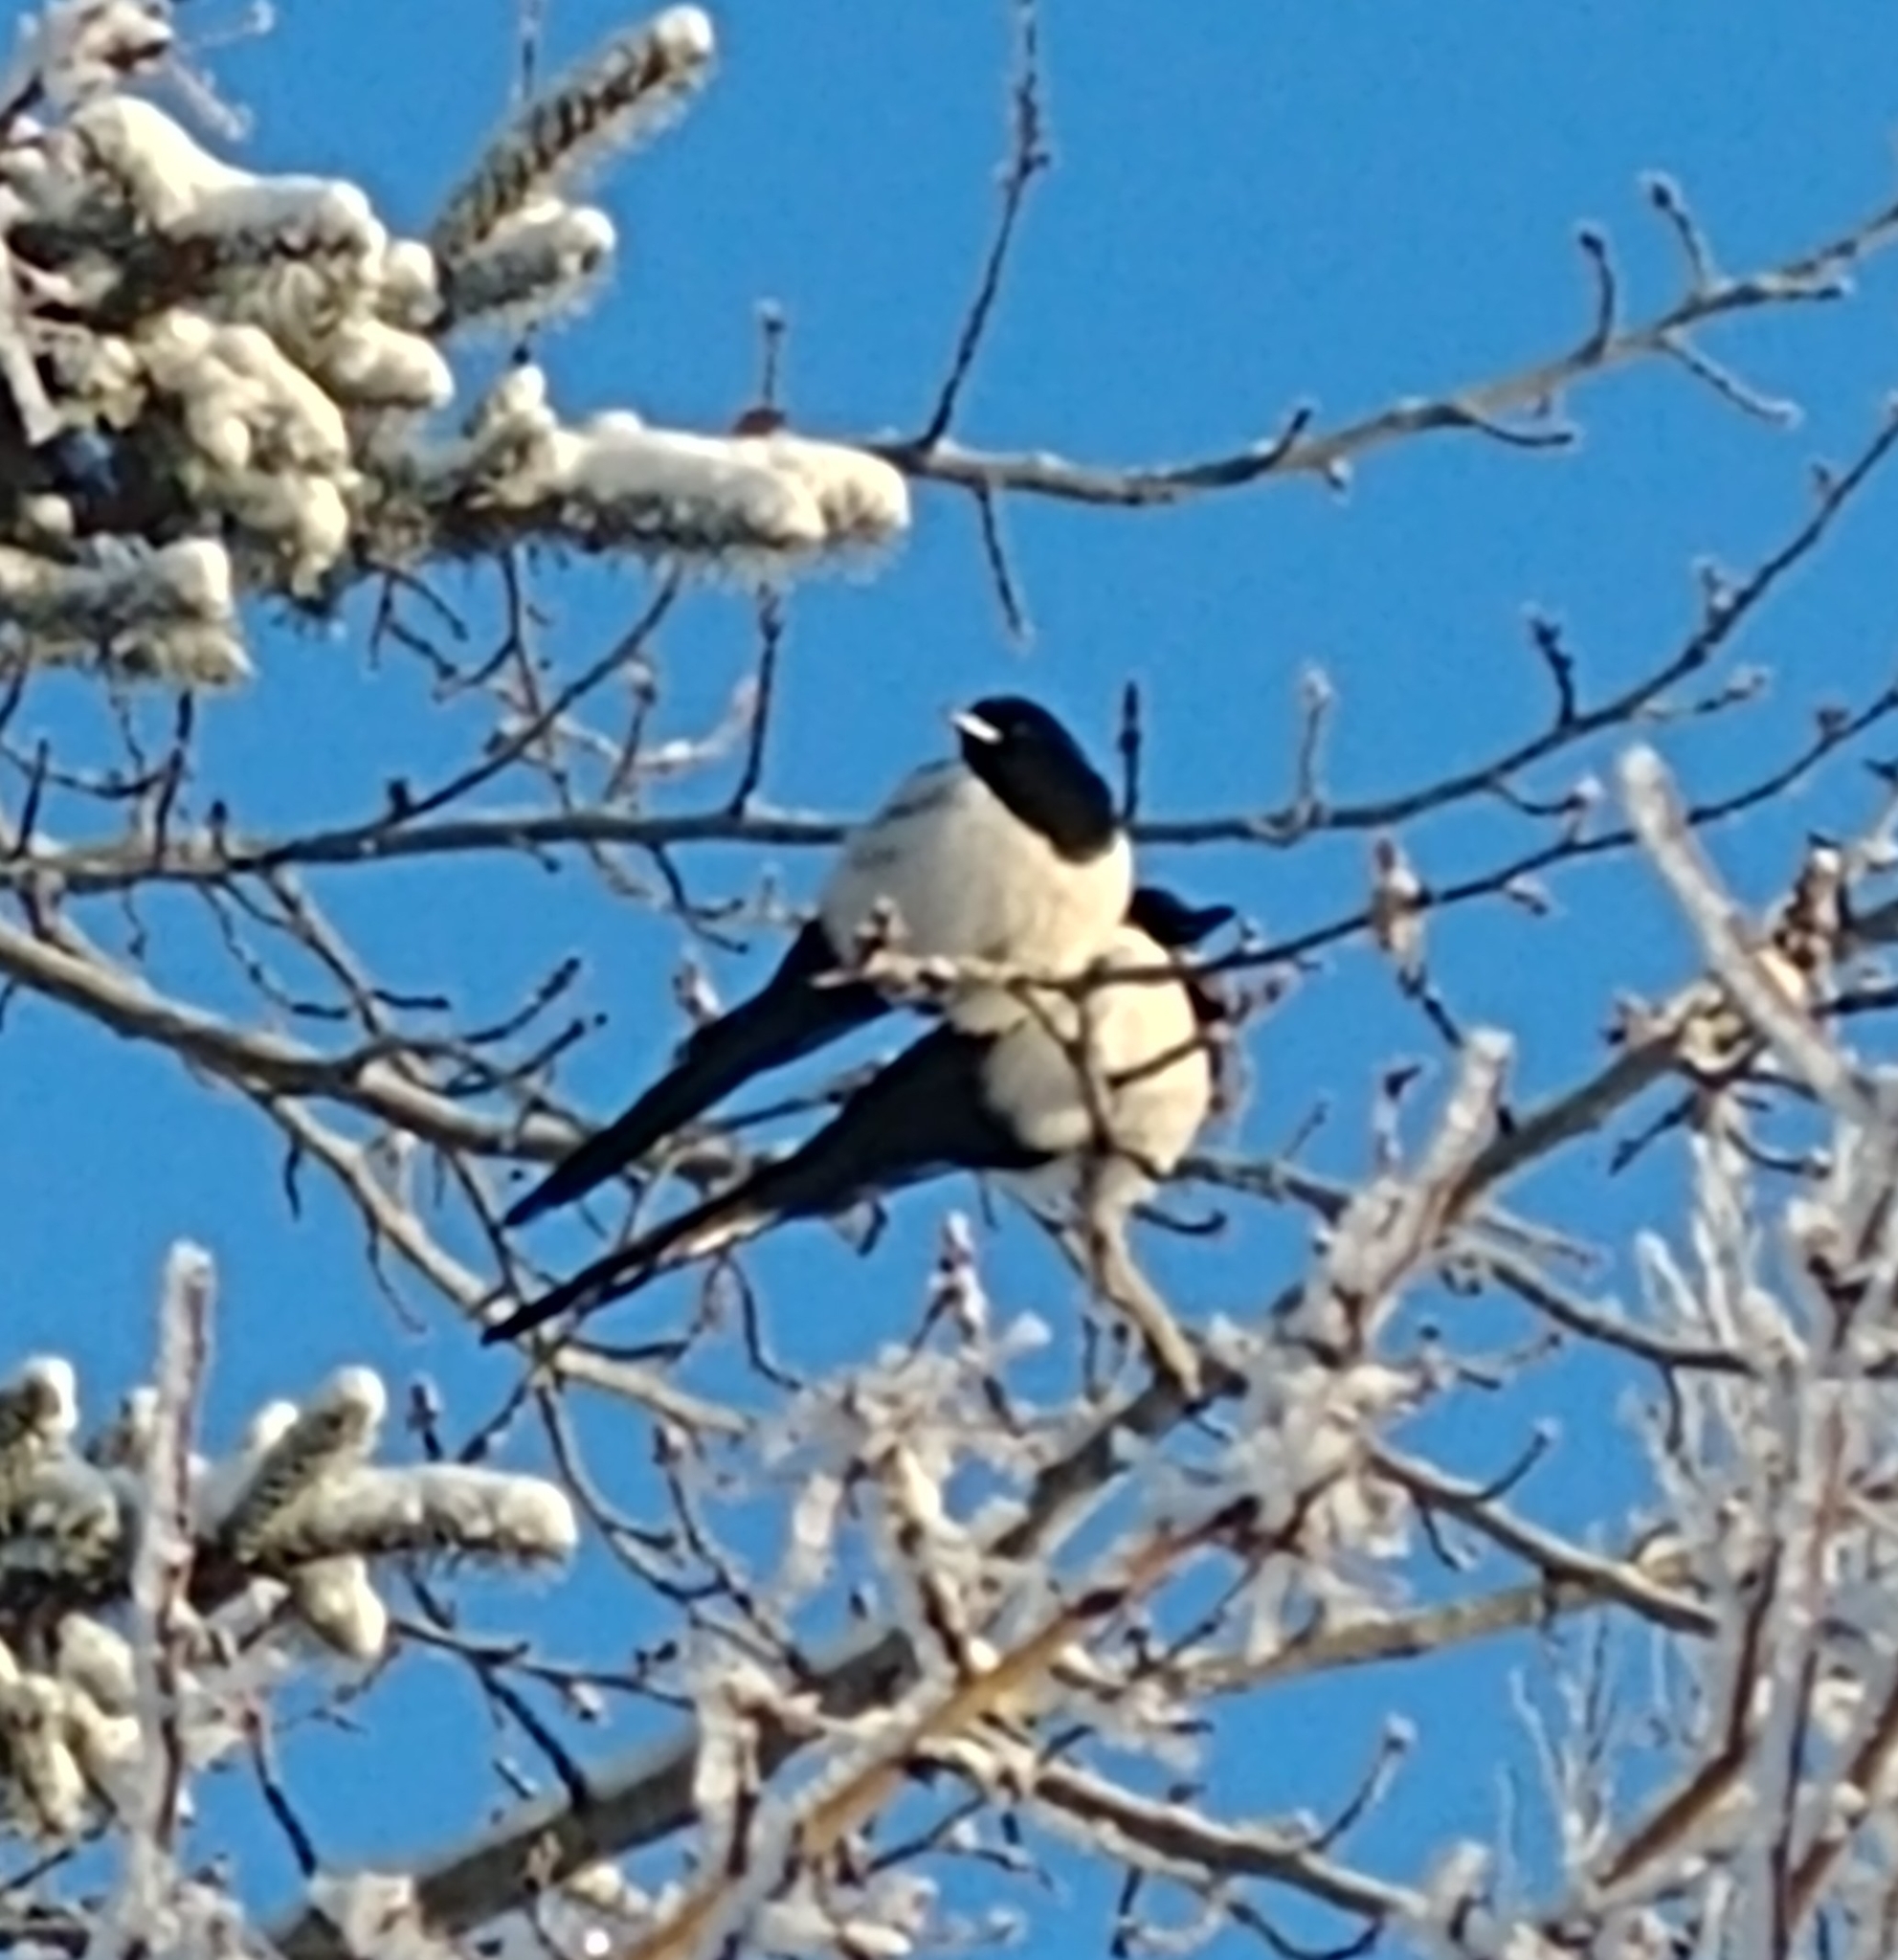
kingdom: Animalia
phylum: Chordata
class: Aves
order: Passeriformes
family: Corvidae
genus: Pica
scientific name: Pica hudsonia
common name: Black-billed magpie
